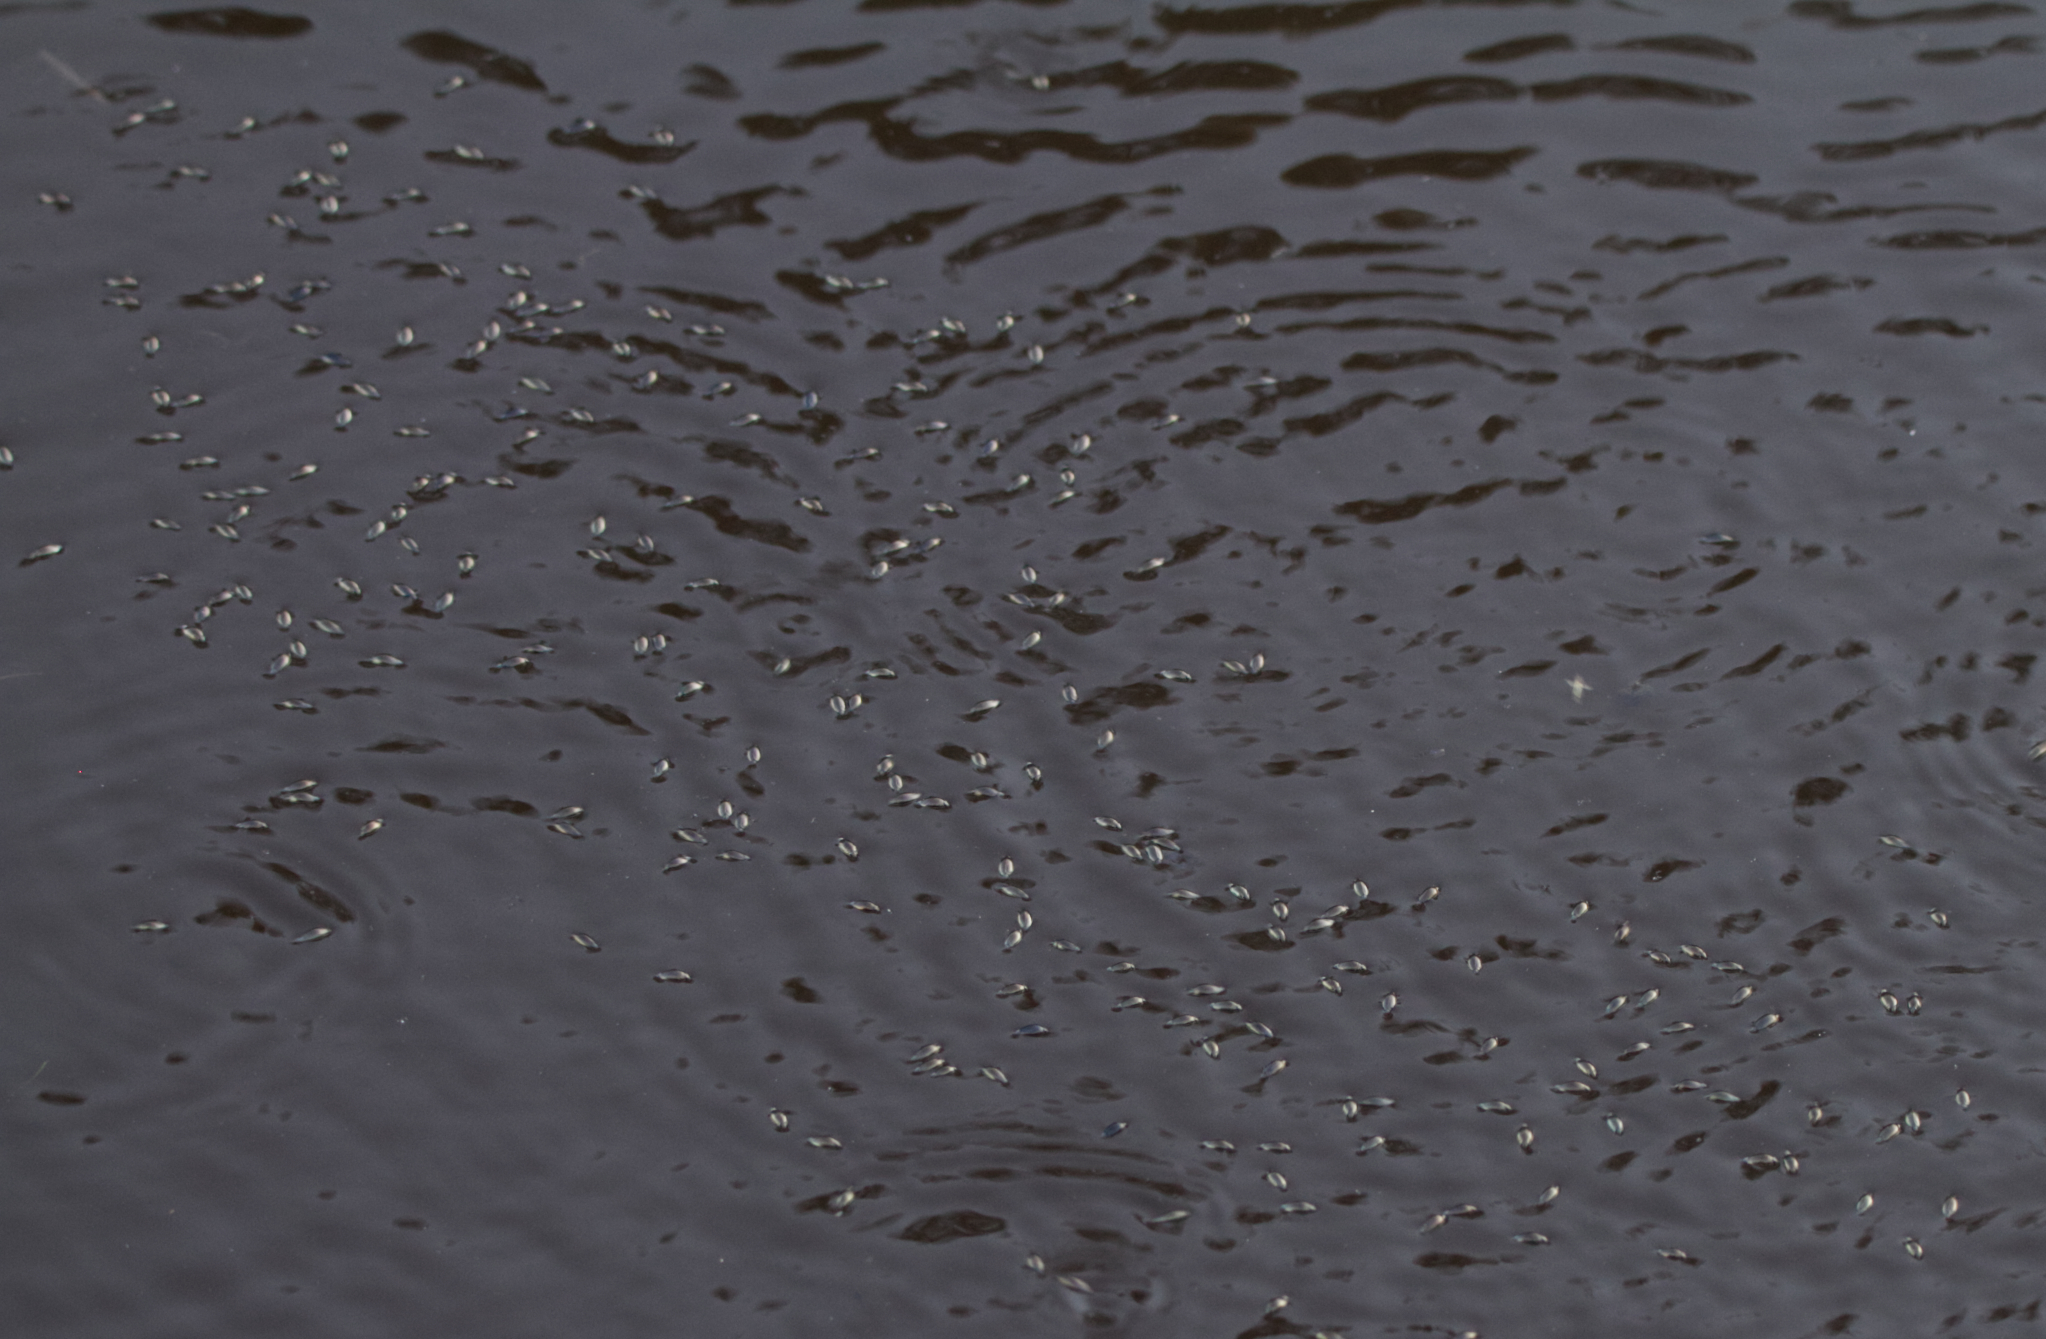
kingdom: Animalia
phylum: Arthropoda
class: Insecta
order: Coleoptera
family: Gyrinidae
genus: Gyrinus
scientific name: Gyrinus
